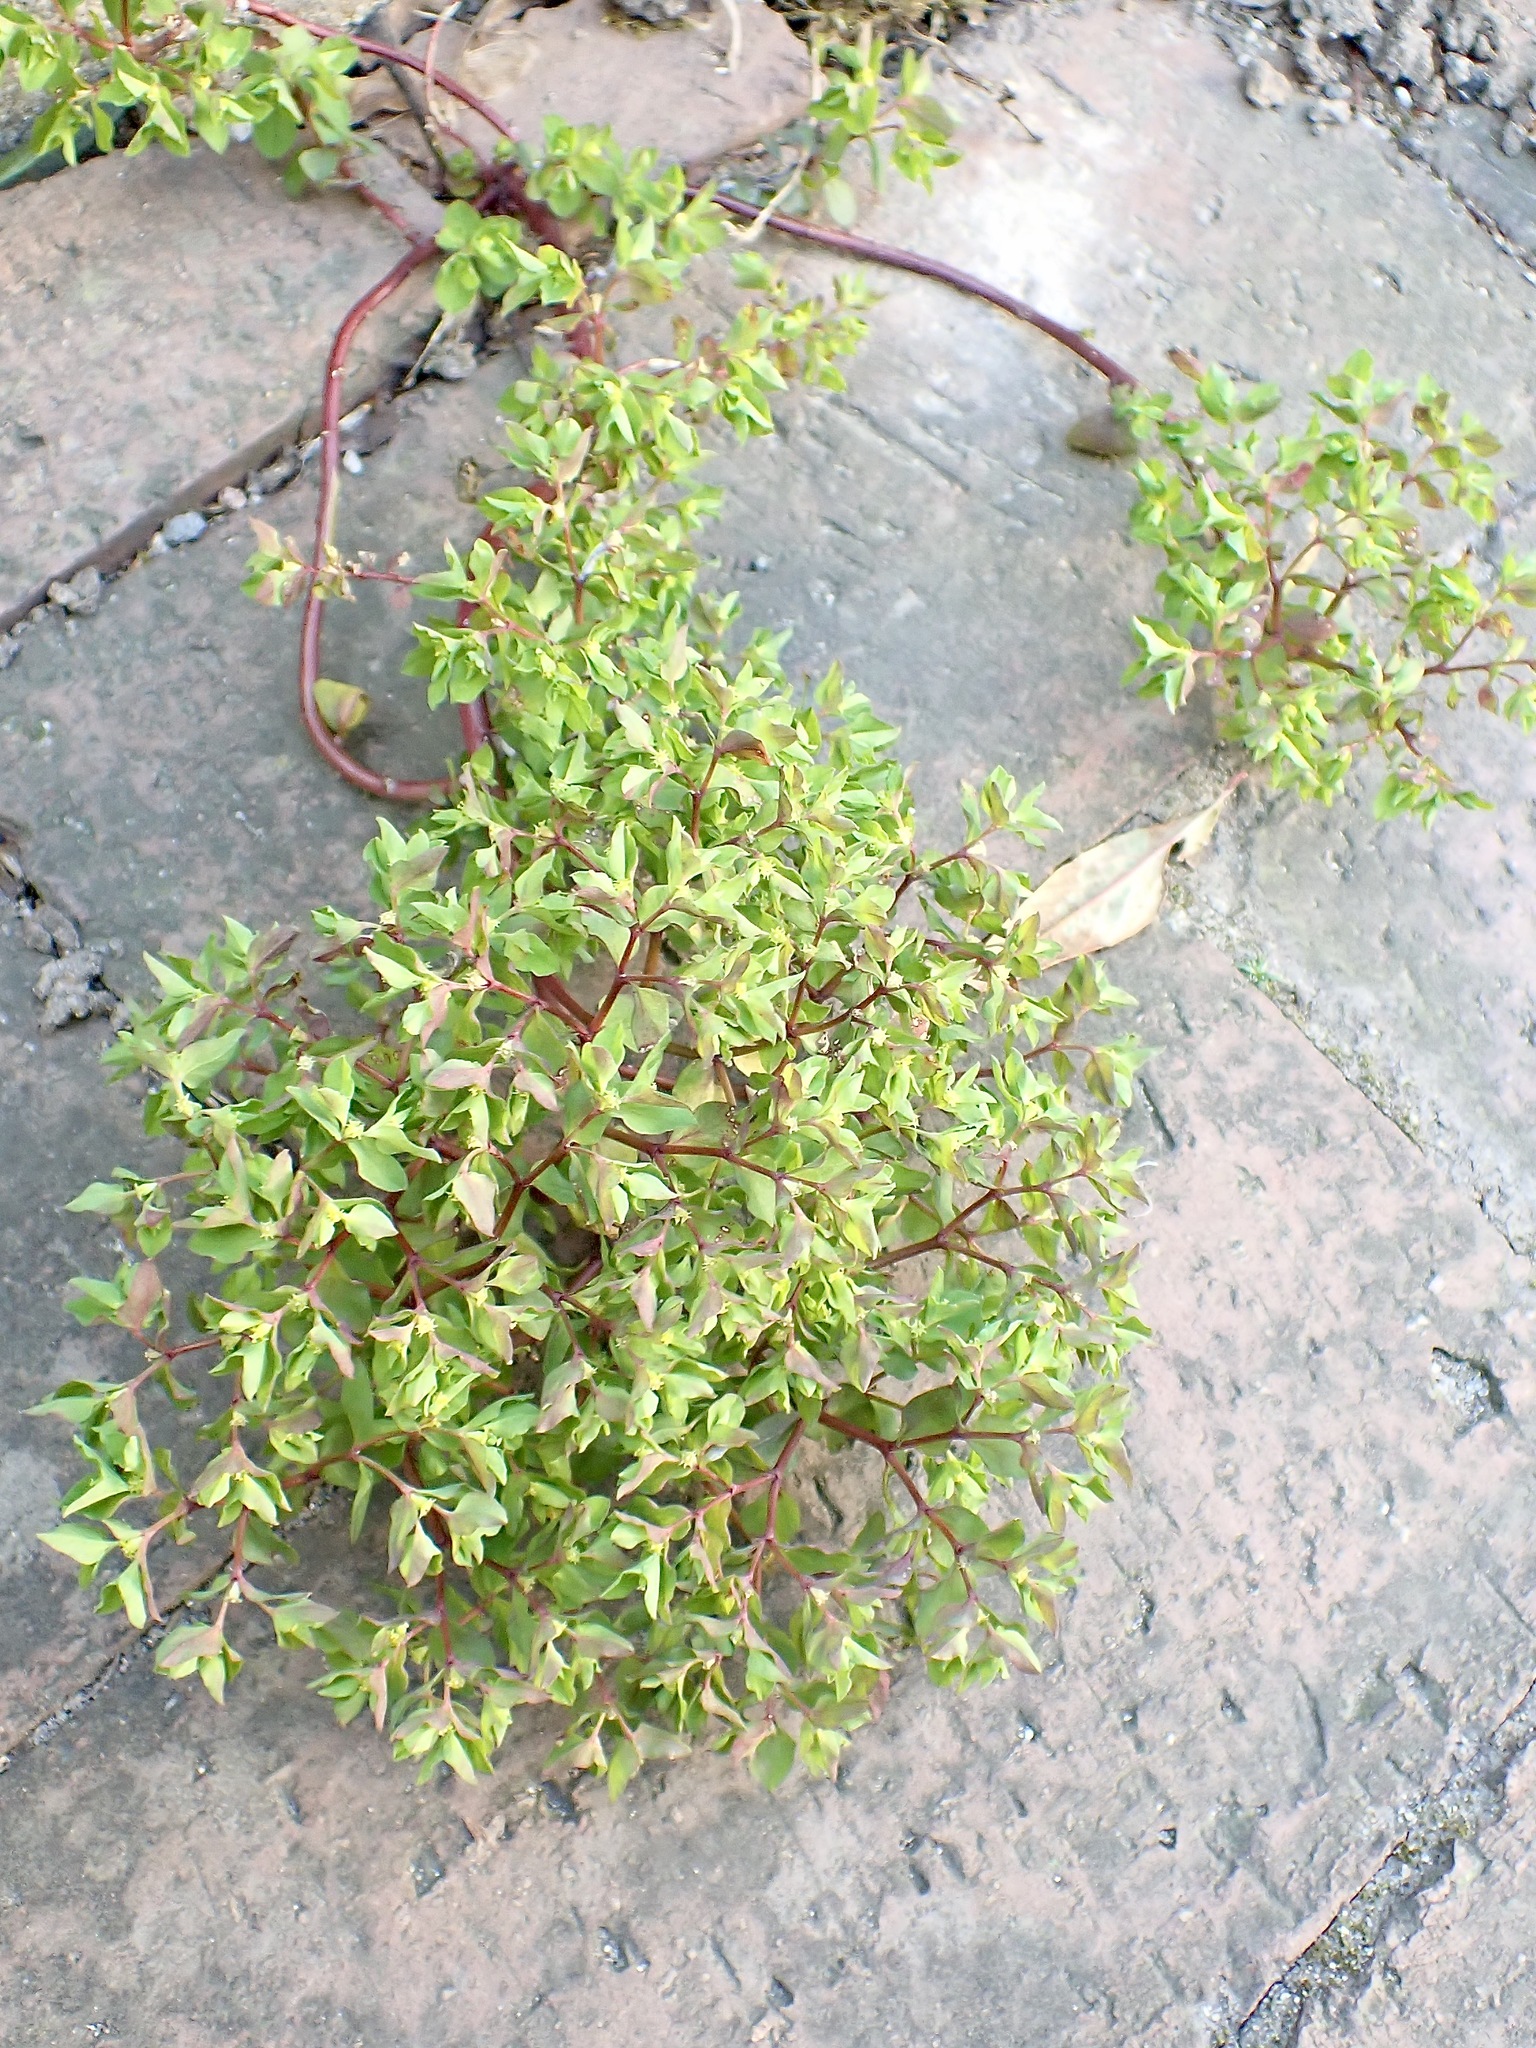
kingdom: Plantae
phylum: Tracheophyta
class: Magnoliopsida
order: Malpighiales
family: Euphorbiaceae
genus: Euphorbia
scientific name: Euphorbia peplus
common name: Petty spurge
